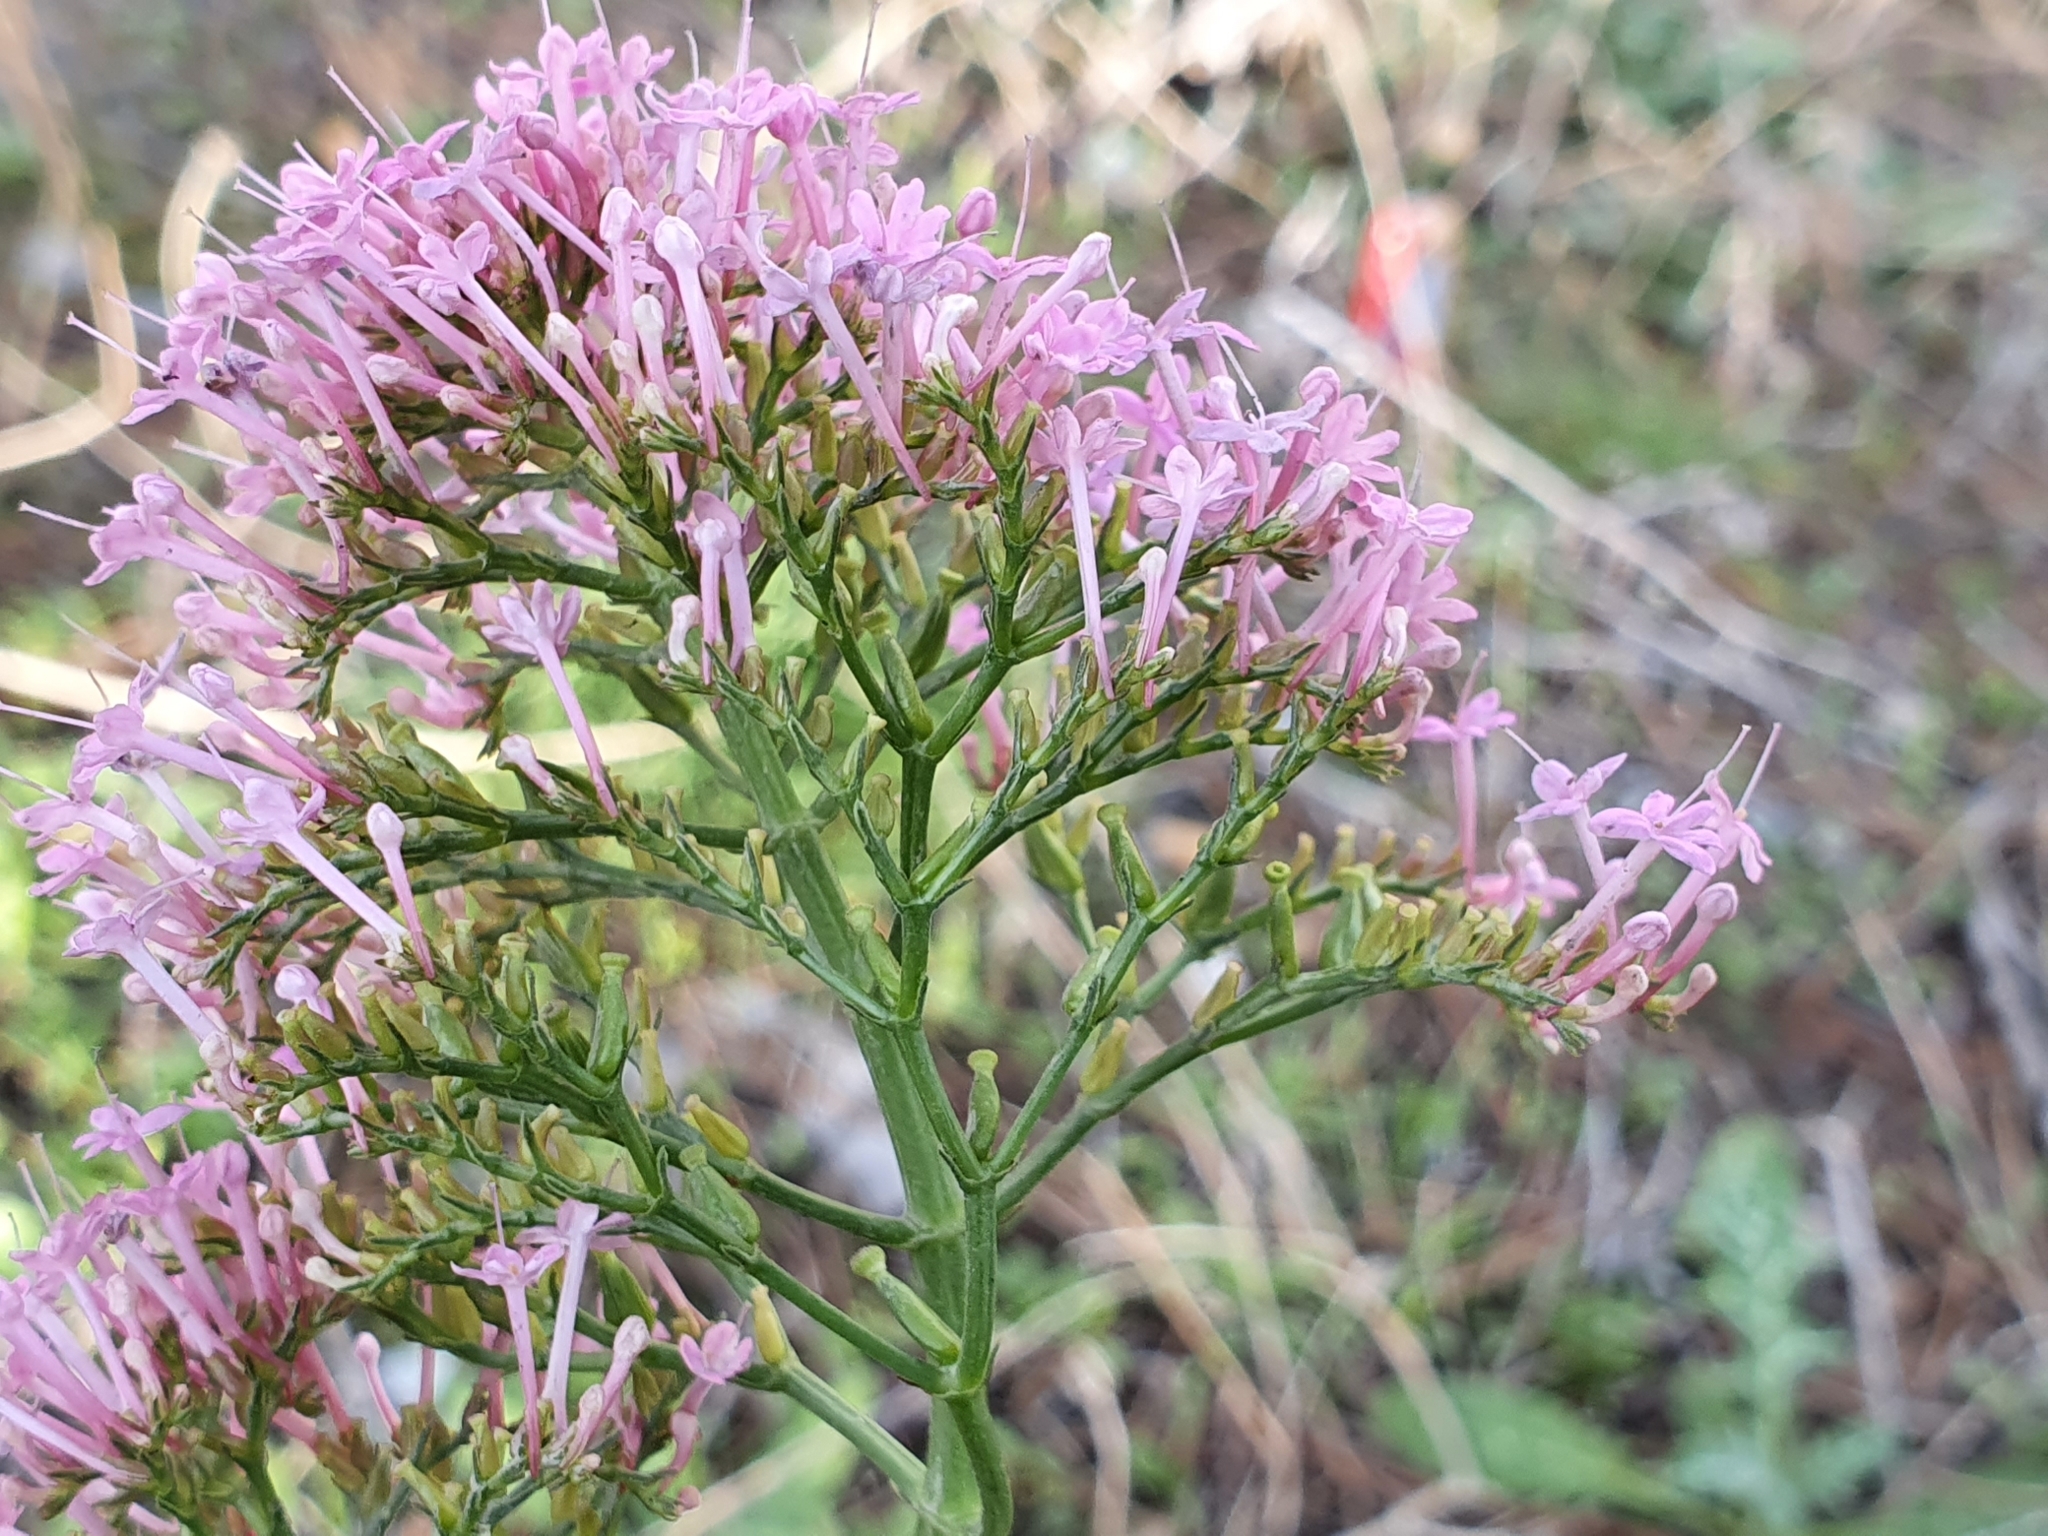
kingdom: Plantae
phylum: Tracheophyta
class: Magnoliopsida
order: Dipsacales
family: Caprifoliaceae
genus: Centranthus
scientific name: Centranthus ruber
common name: Red valerian
